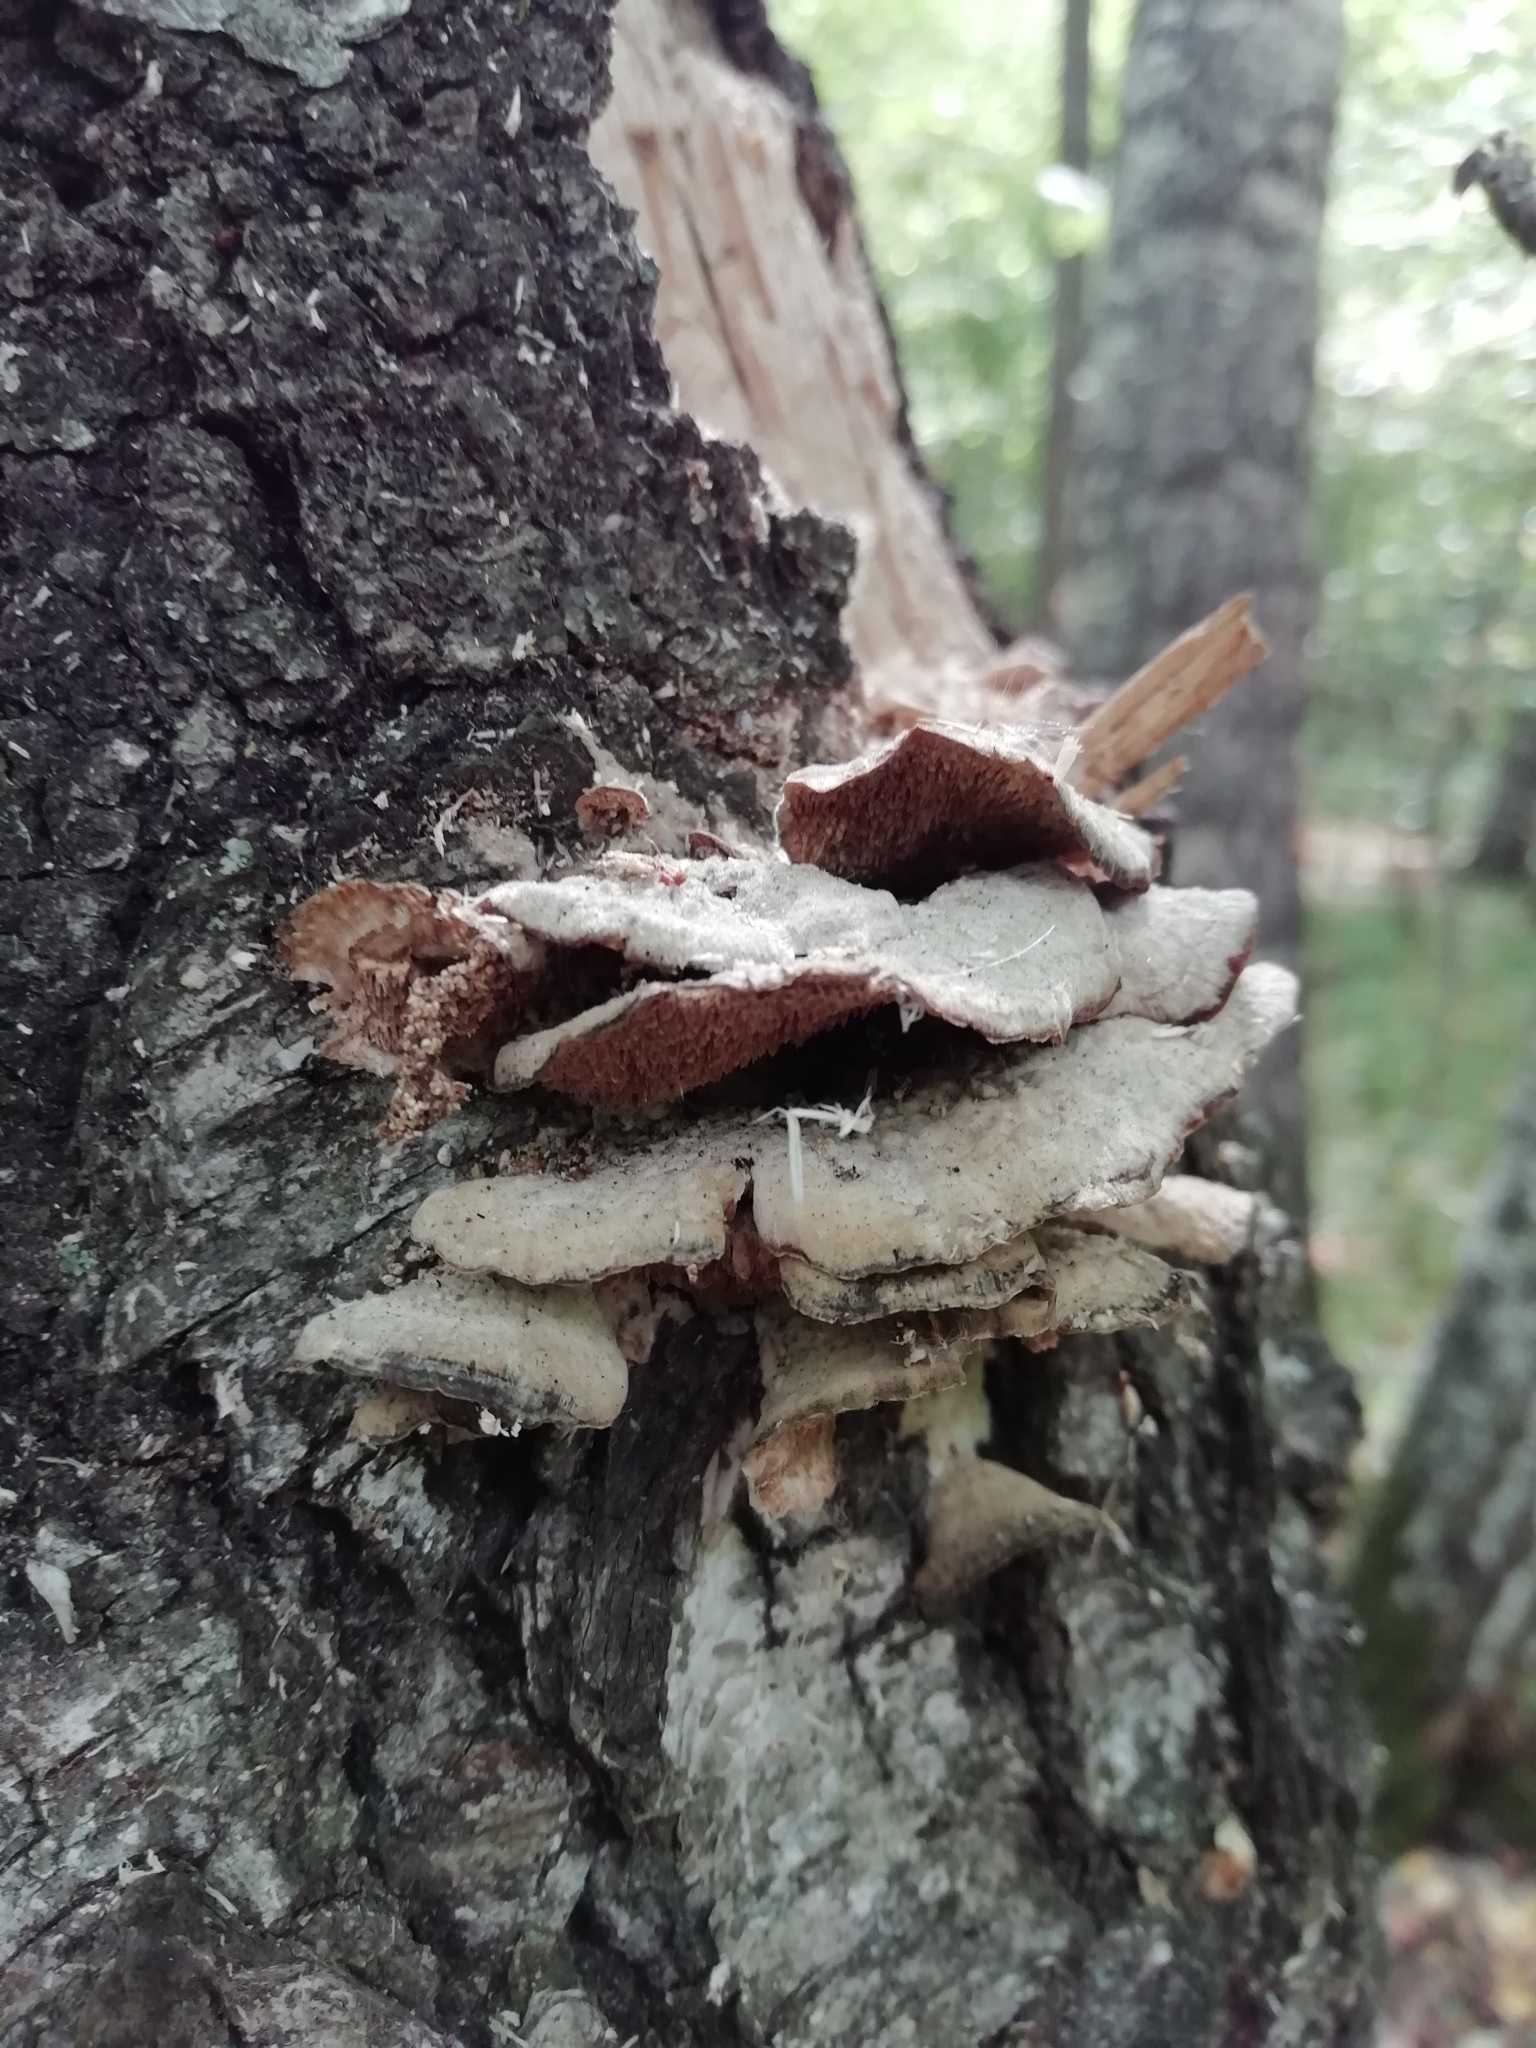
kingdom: Fungi
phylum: Basidiomycota
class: Agaricomycetes
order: Hymenochaetales
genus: Trichaptum
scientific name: Trichaptum biforme
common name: Violet-toothed polypore
